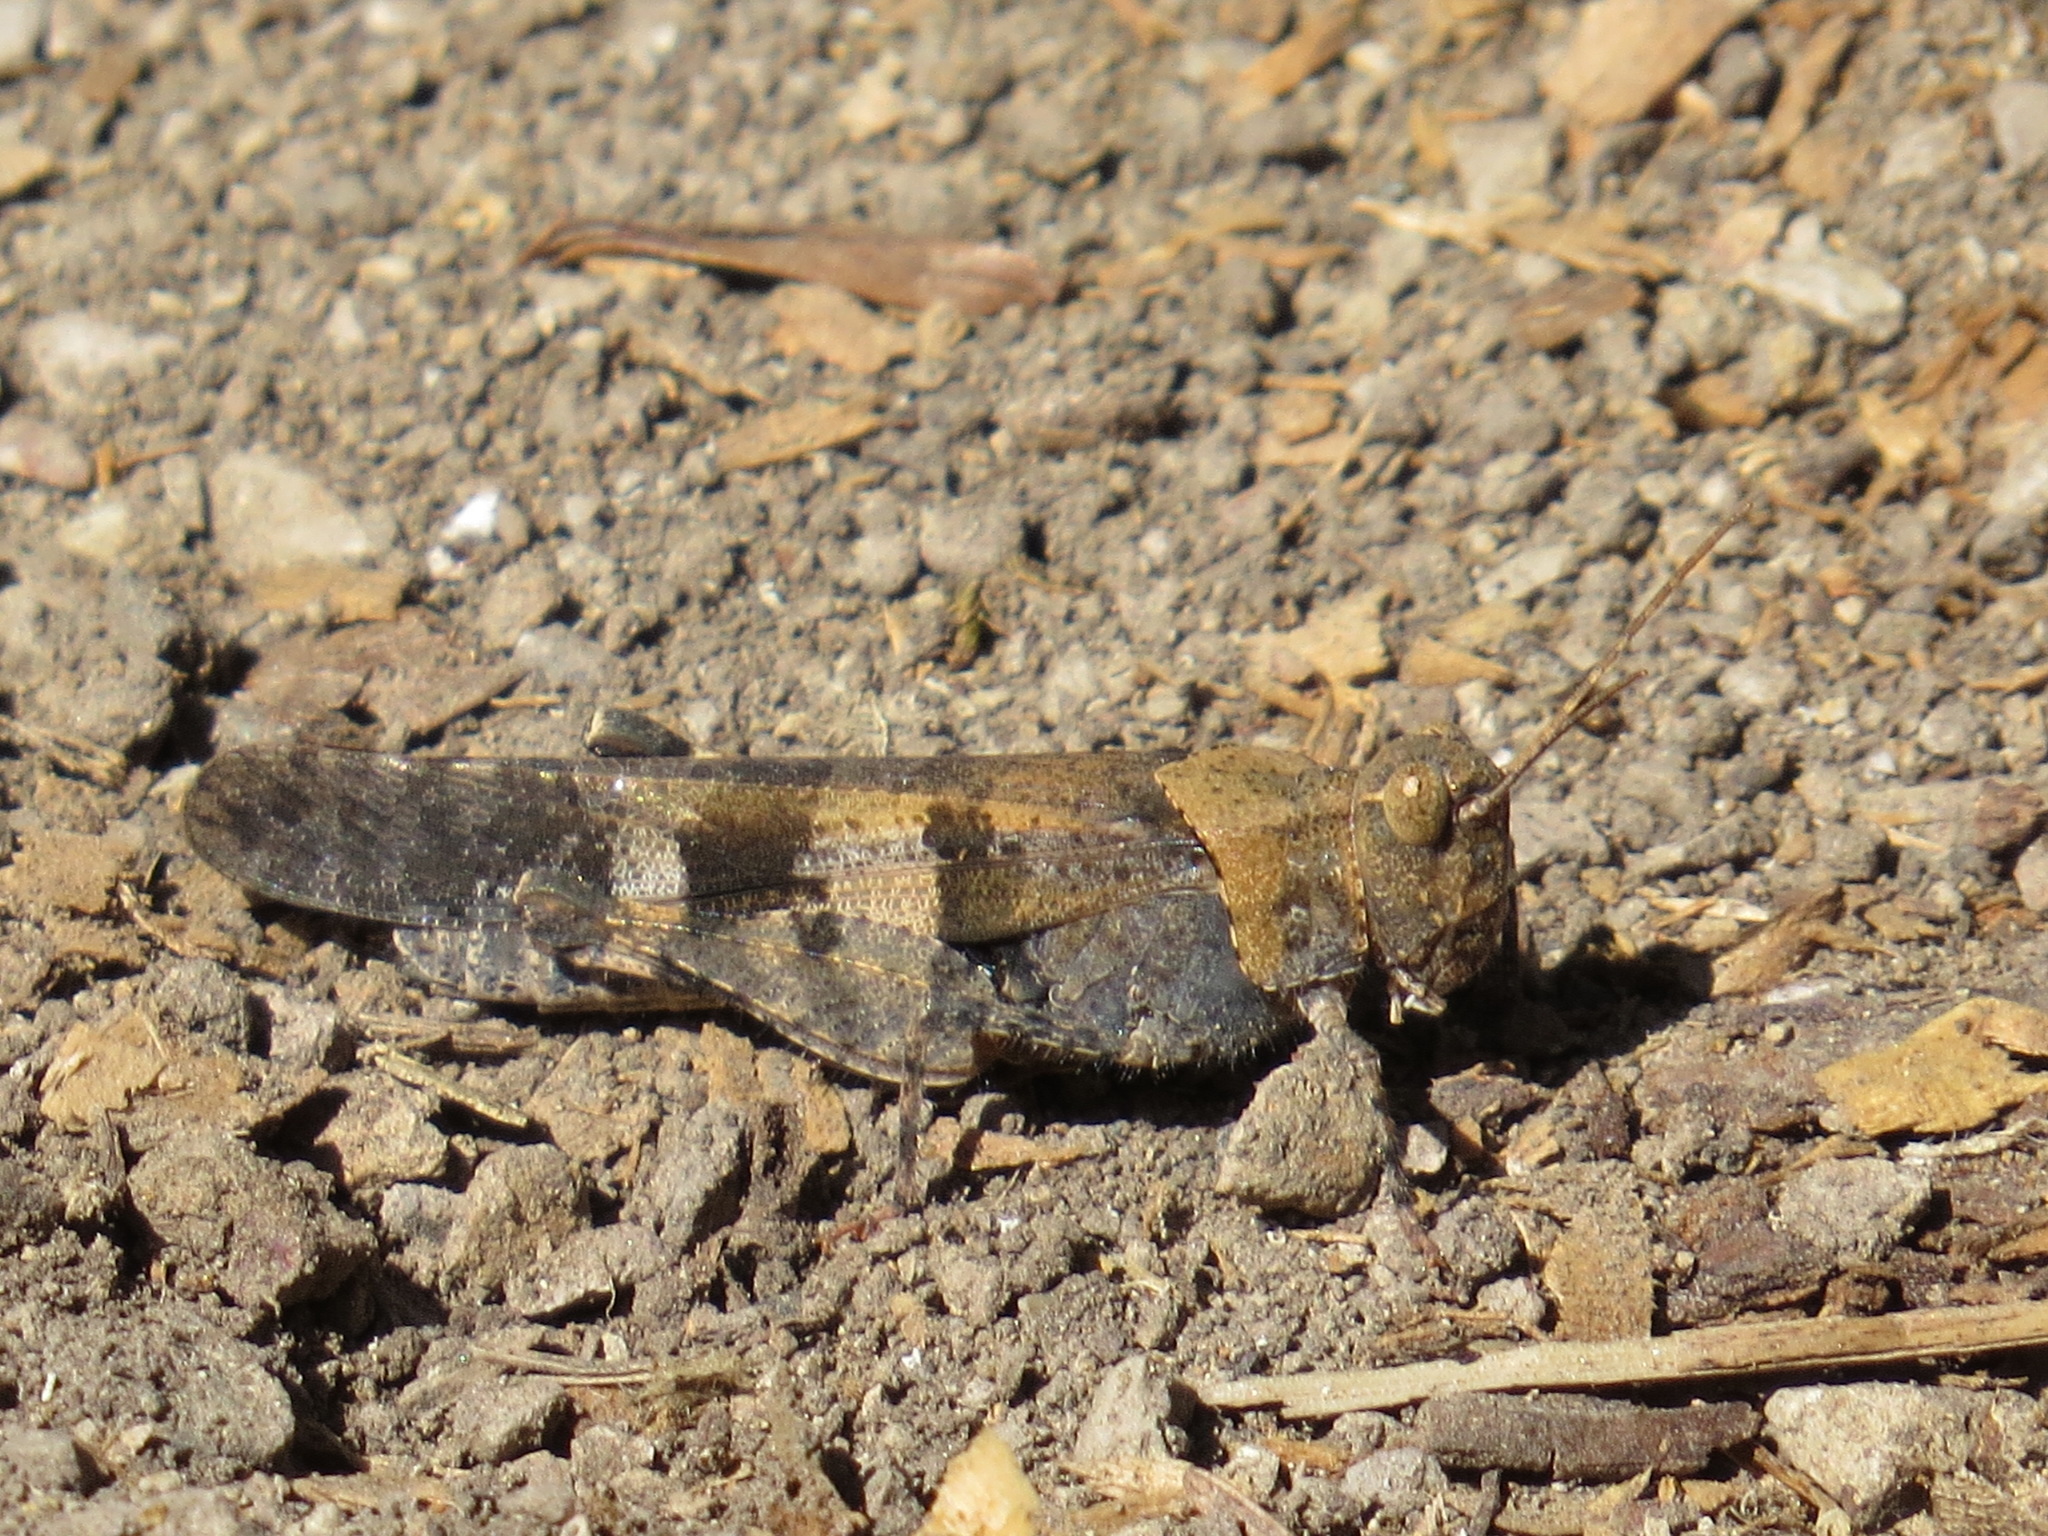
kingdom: Animalia
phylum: Arthropoda
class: Insecta
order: Orthoptera
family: Acrididae
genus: Trimerotropis
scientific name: Trimerotropis fontana
